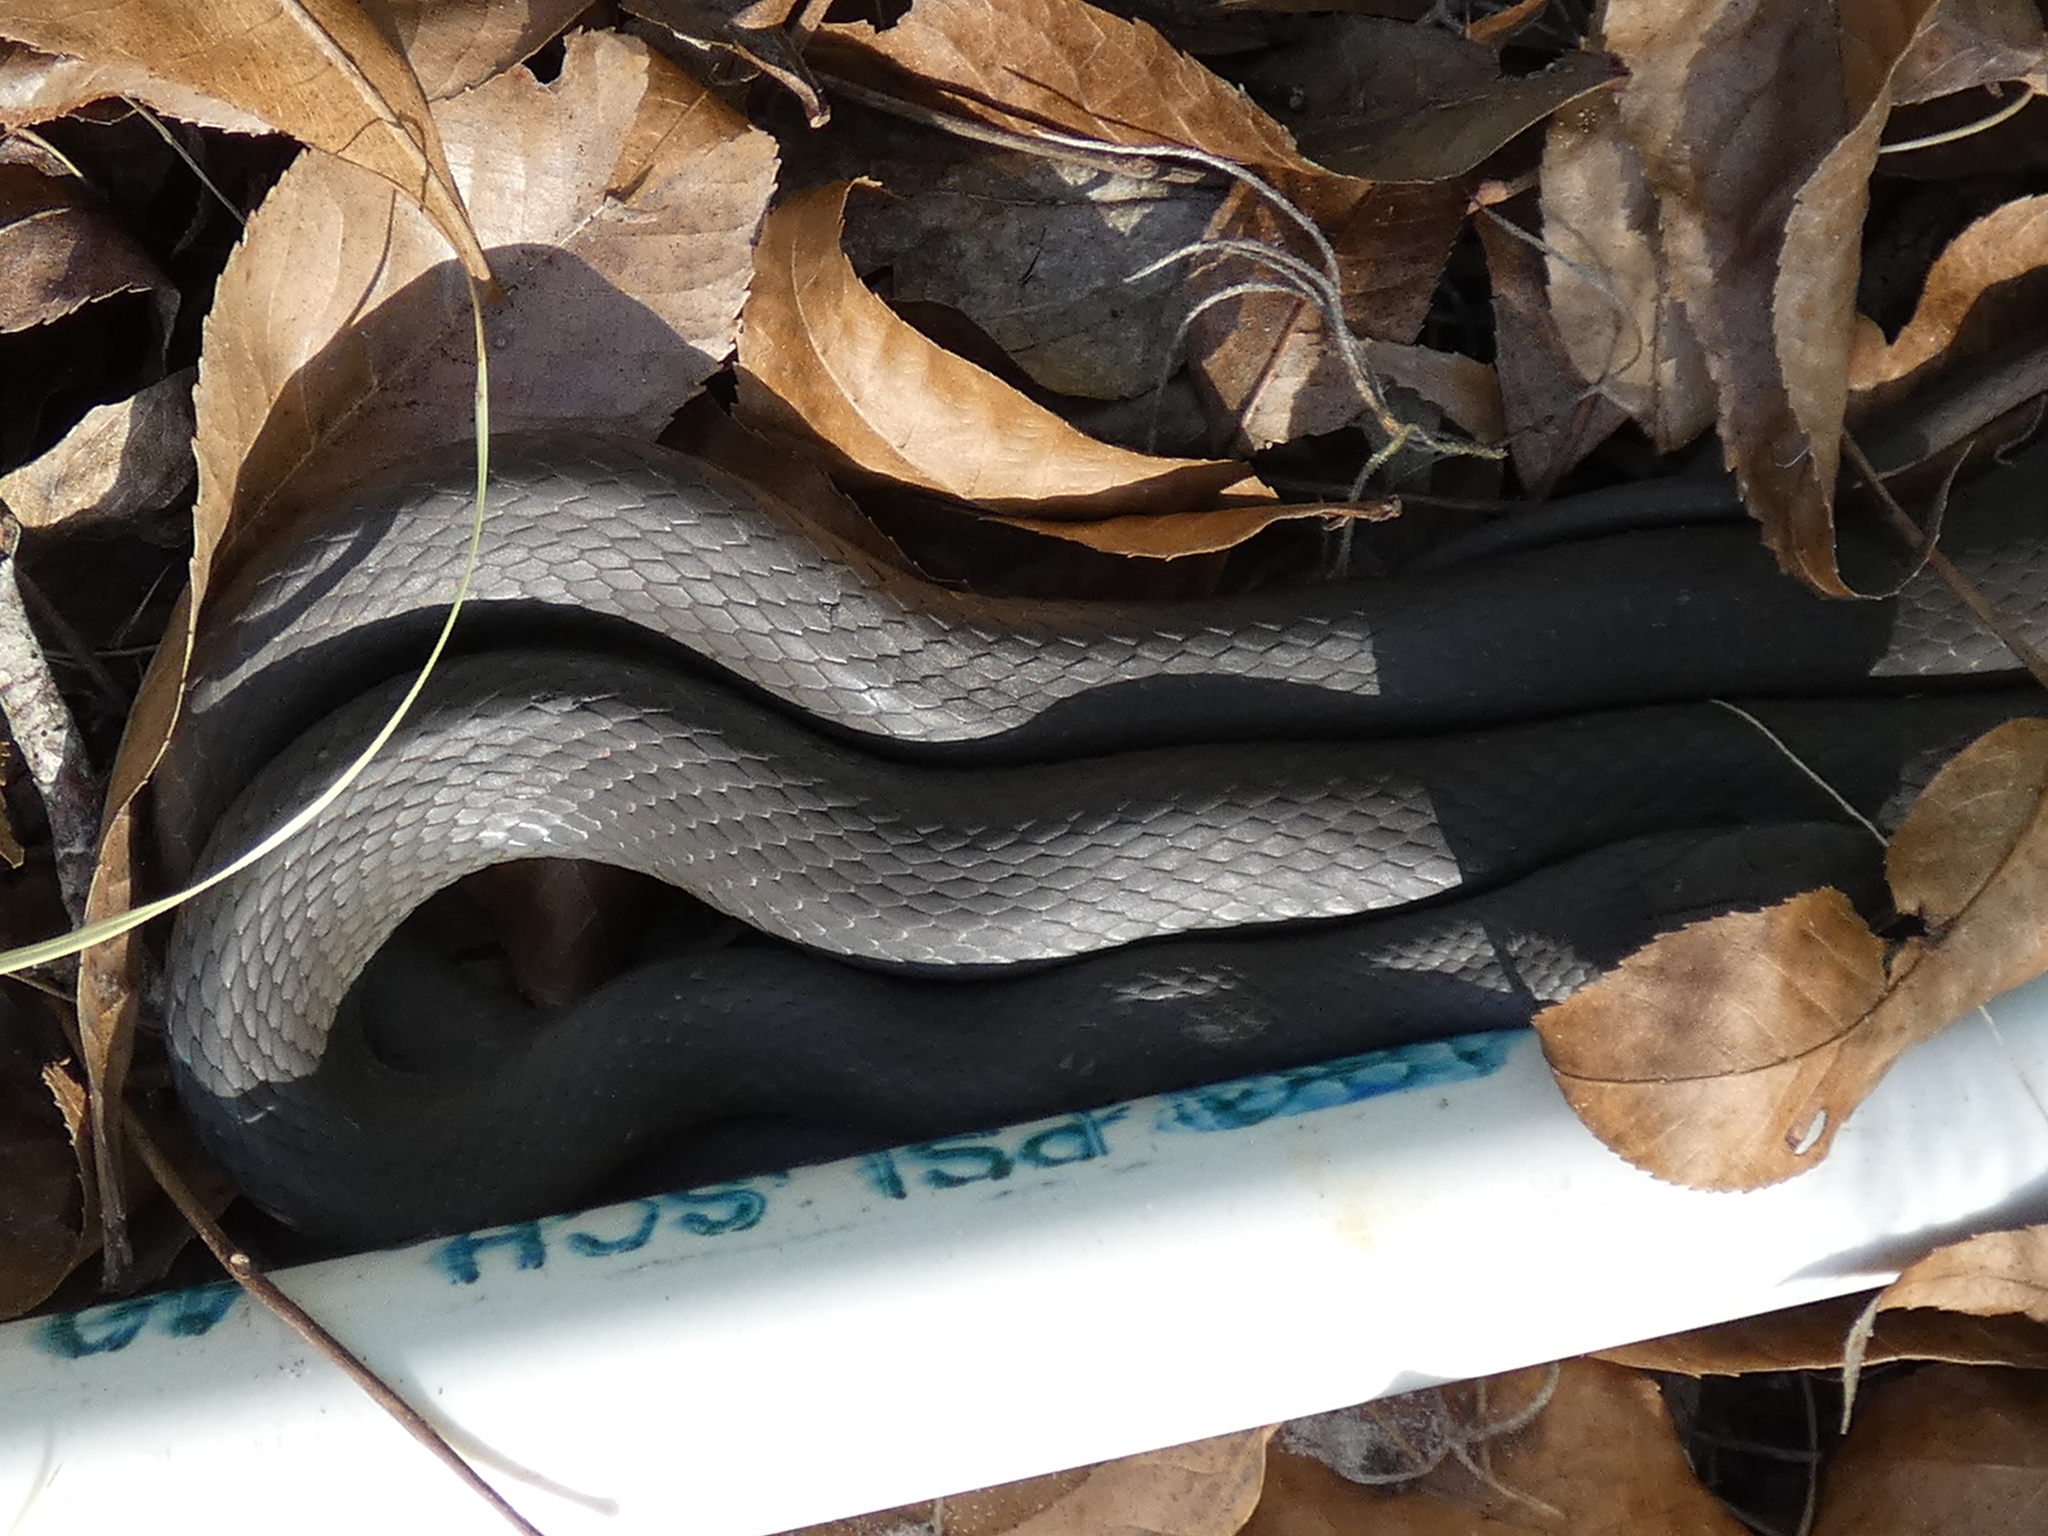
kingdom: Animalia
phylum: Chordata
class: Squamata
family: Colubridae
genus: Coluber
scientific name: Coluber constrictor
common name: Eastern racer
